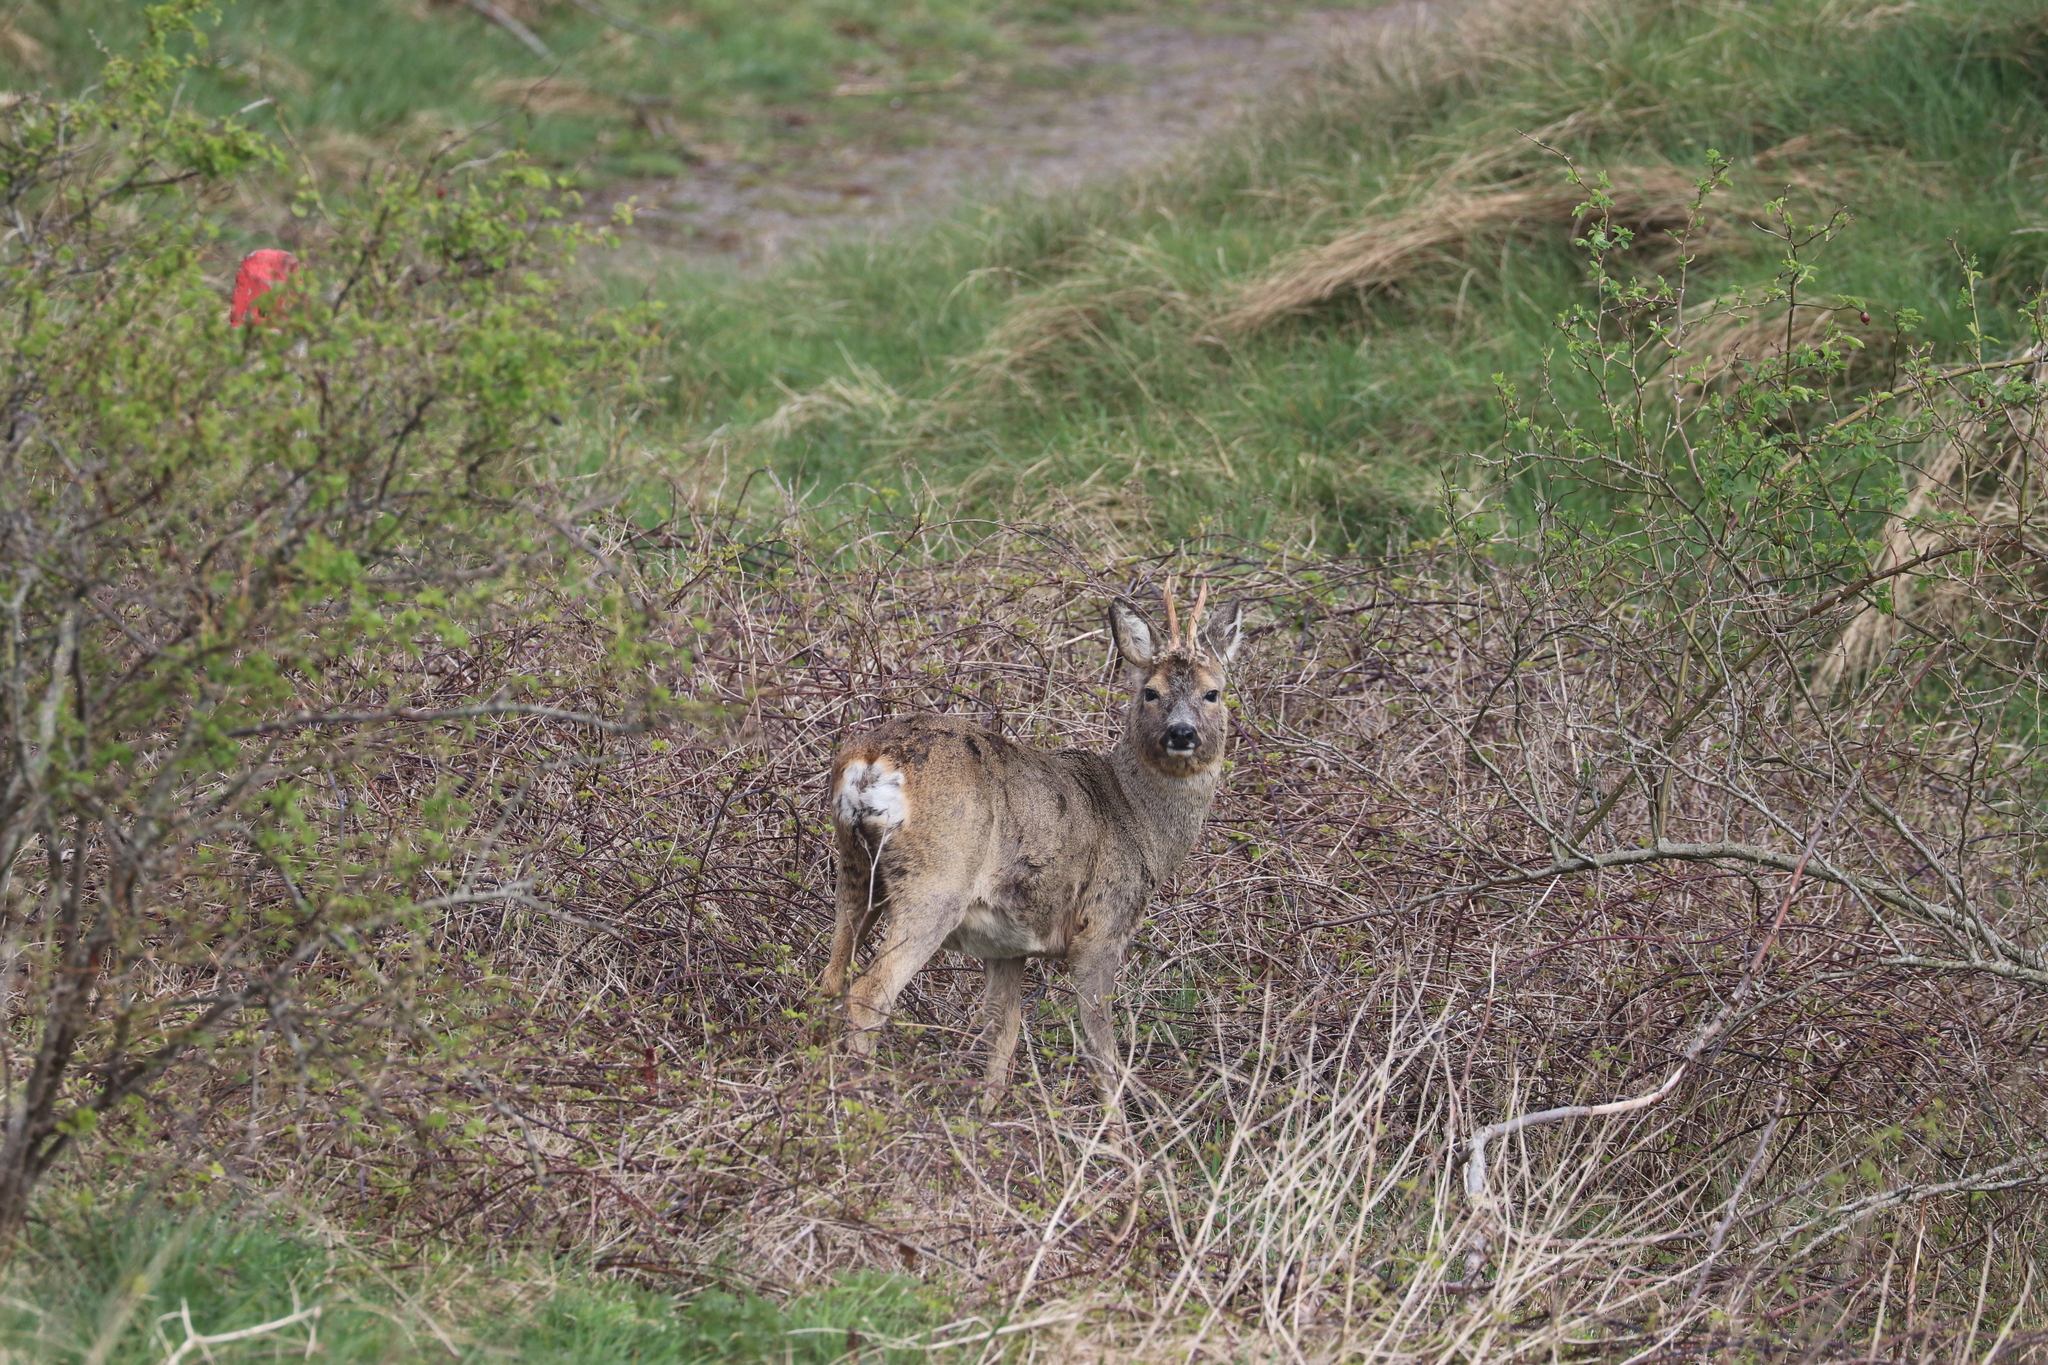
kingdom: Animalia
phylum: Chordata
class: Mammalia
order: Artiodactyla
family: Cervidae
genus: Capreolus
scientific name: Capreolus capreolus
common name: Western roe deer
